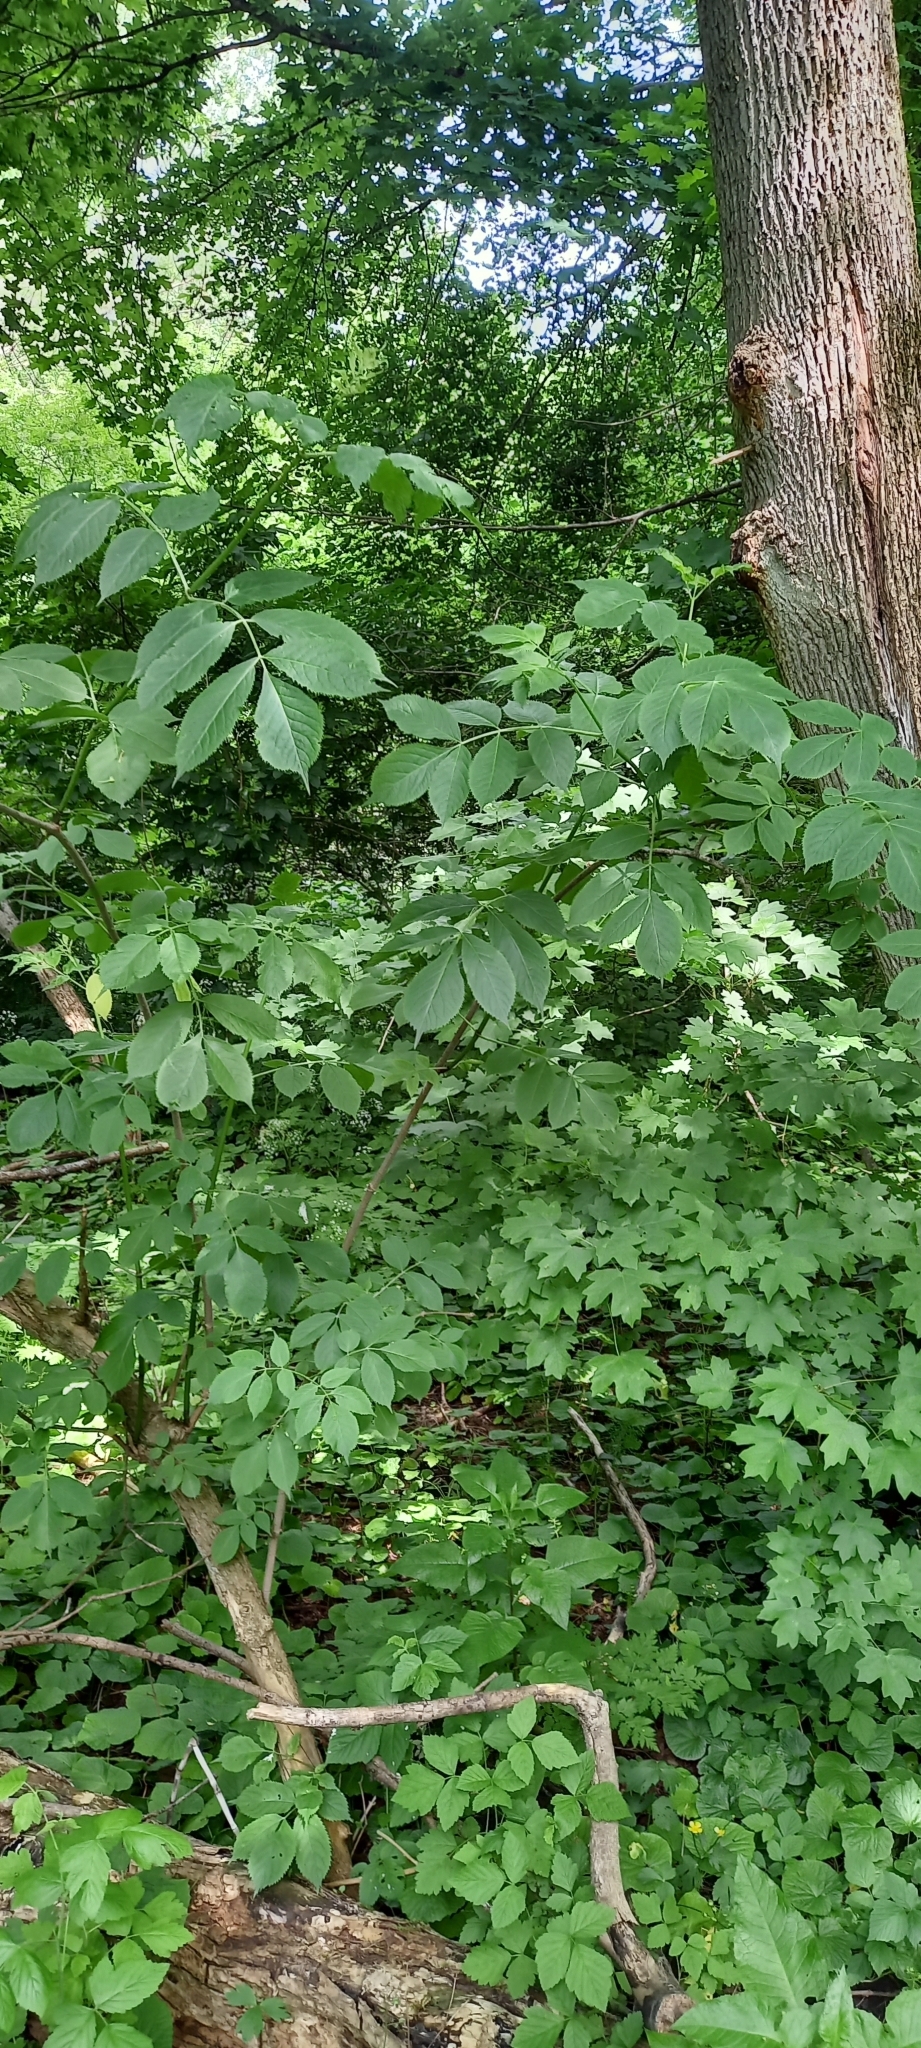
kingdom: Plantae
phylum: Tracheophyta
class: Magnoliopsida
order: Dipsacales
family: Viburnaceae
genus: Sambucus
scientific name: Sambucus nigra
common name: Elder
